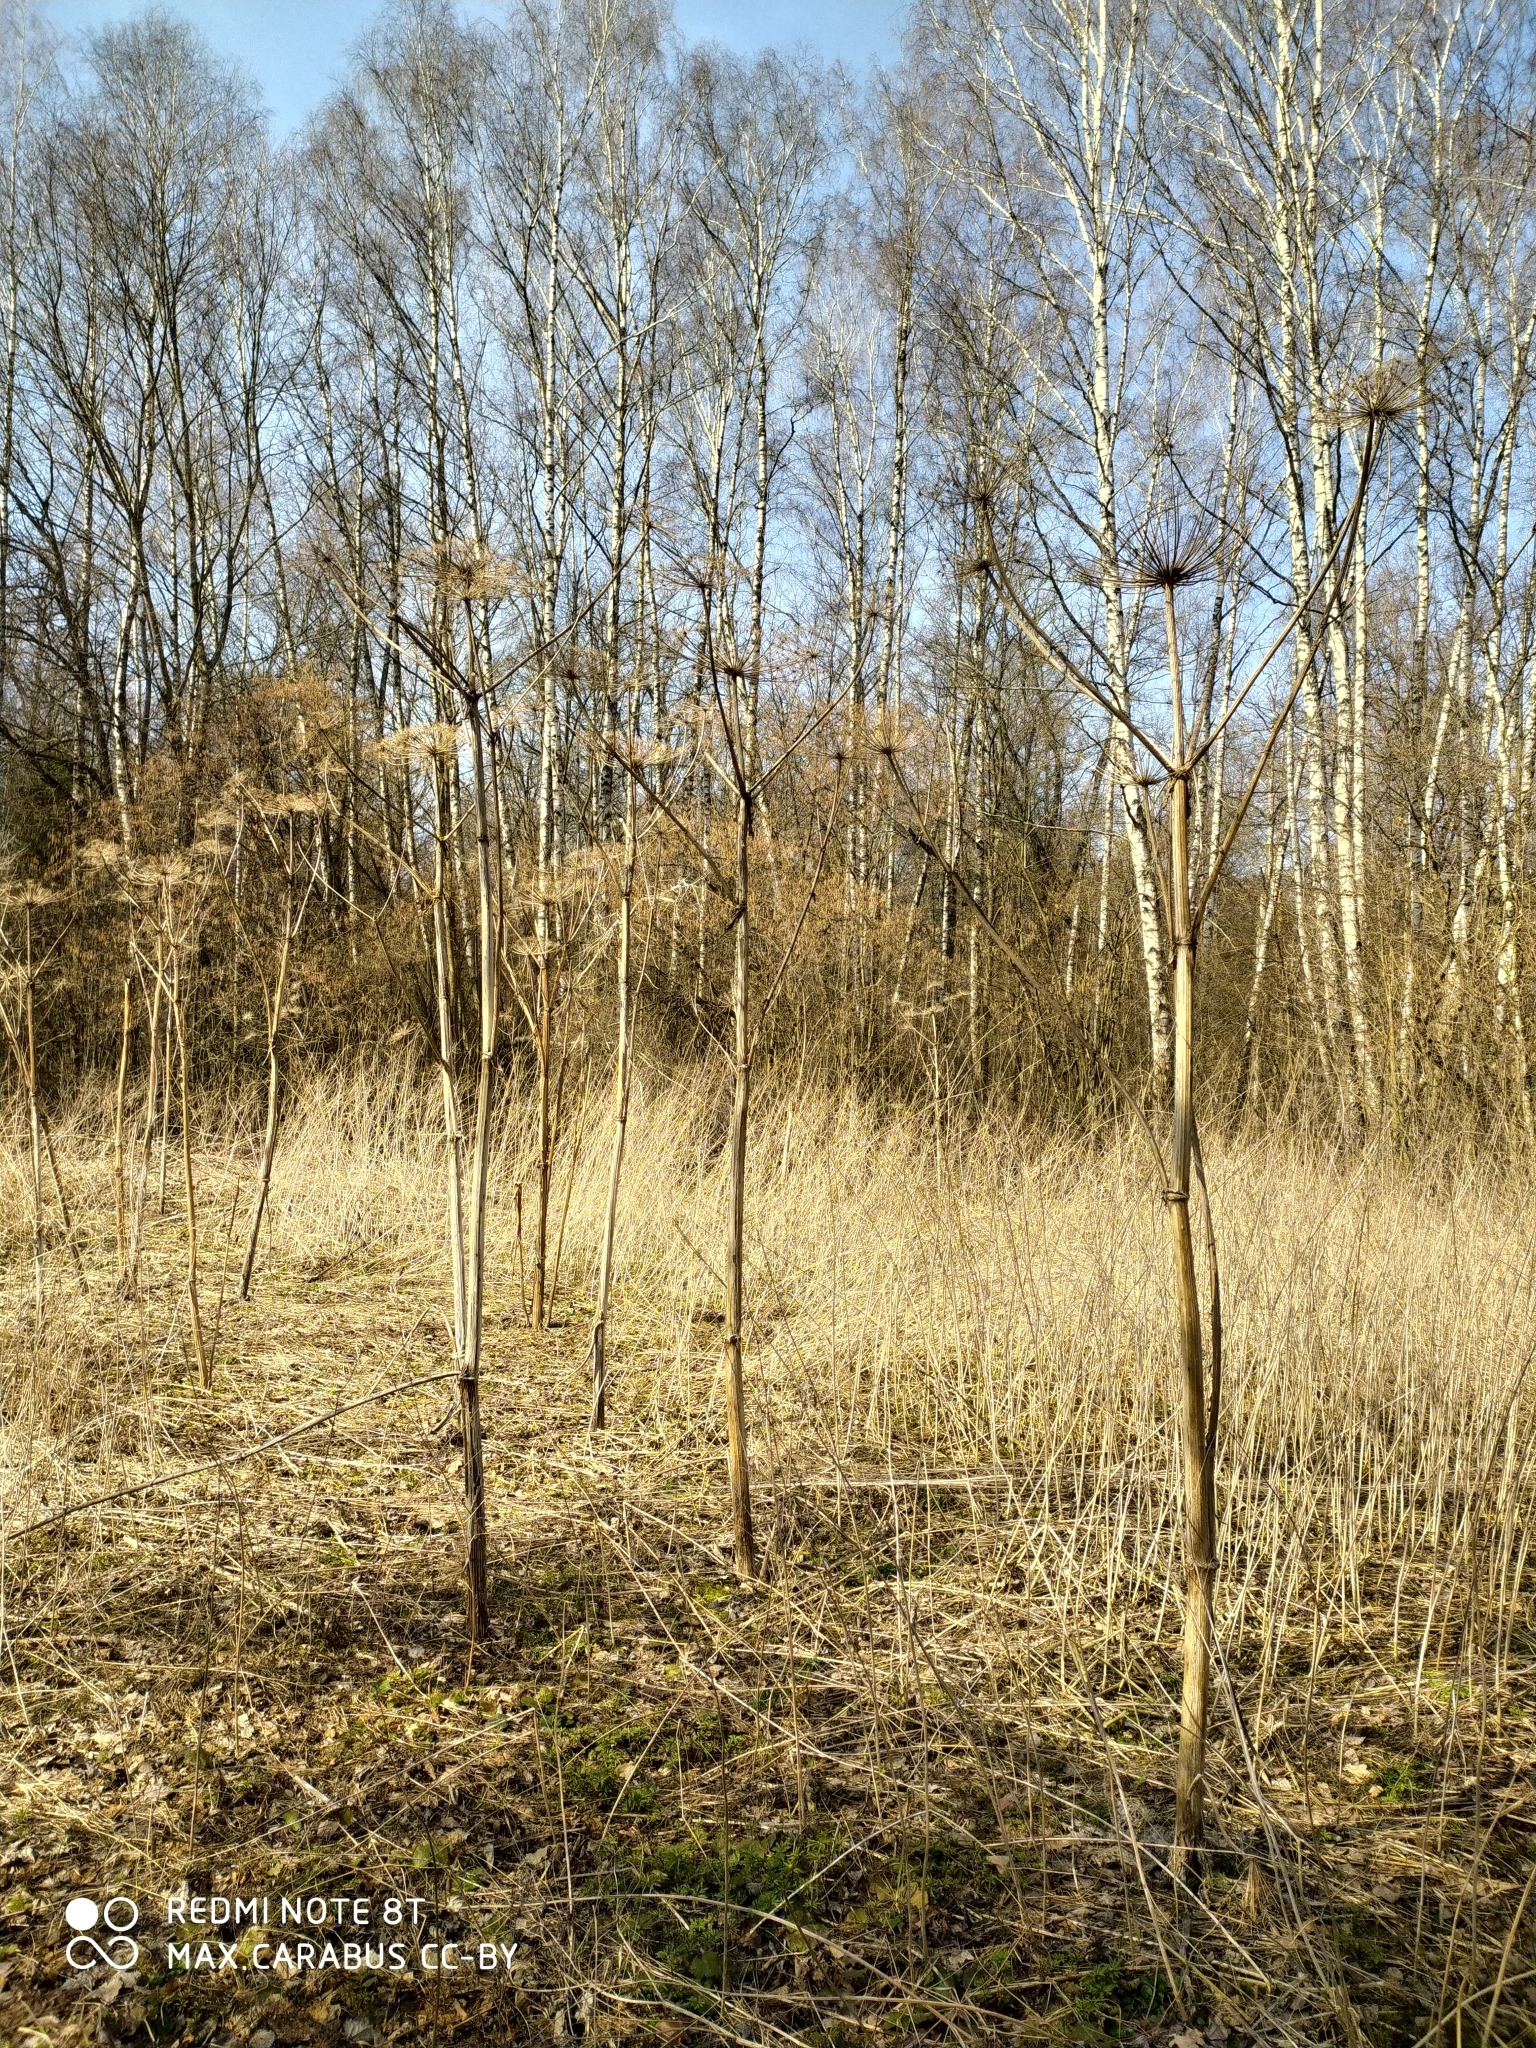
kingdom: Plantae
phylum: Tracheophyta
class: Magnoliopsida
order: Apiales
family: Apiaceae
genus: Heracleum
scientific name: Heracleum sosnowskyi
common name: Sosnowsky's hogweed
